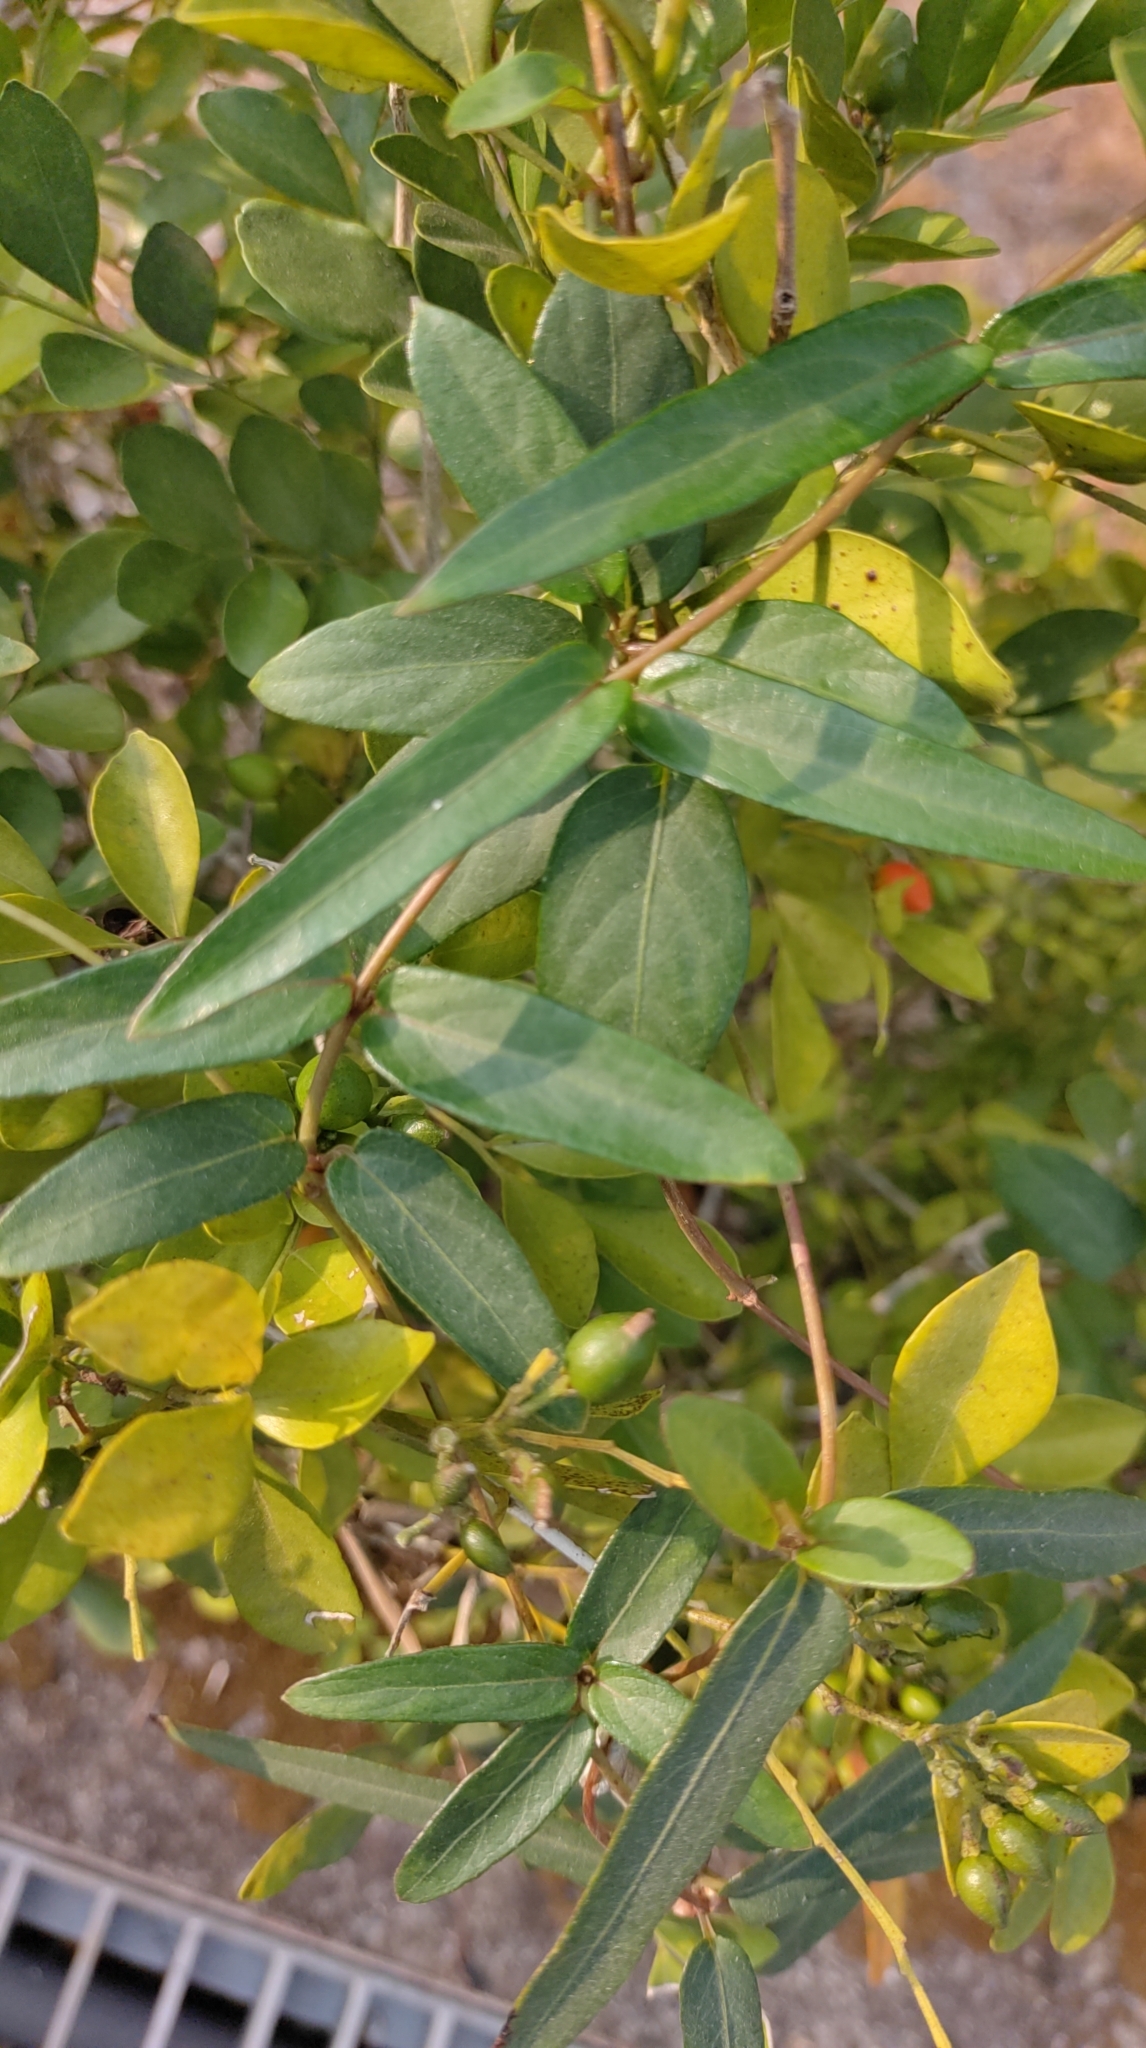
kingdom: Plantae
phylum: Tracheophyta
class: Magnoliopsida
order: Gentianales
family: Rubiaceae
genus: Paederia
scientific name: Paederia foetida
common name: Stinkvine
